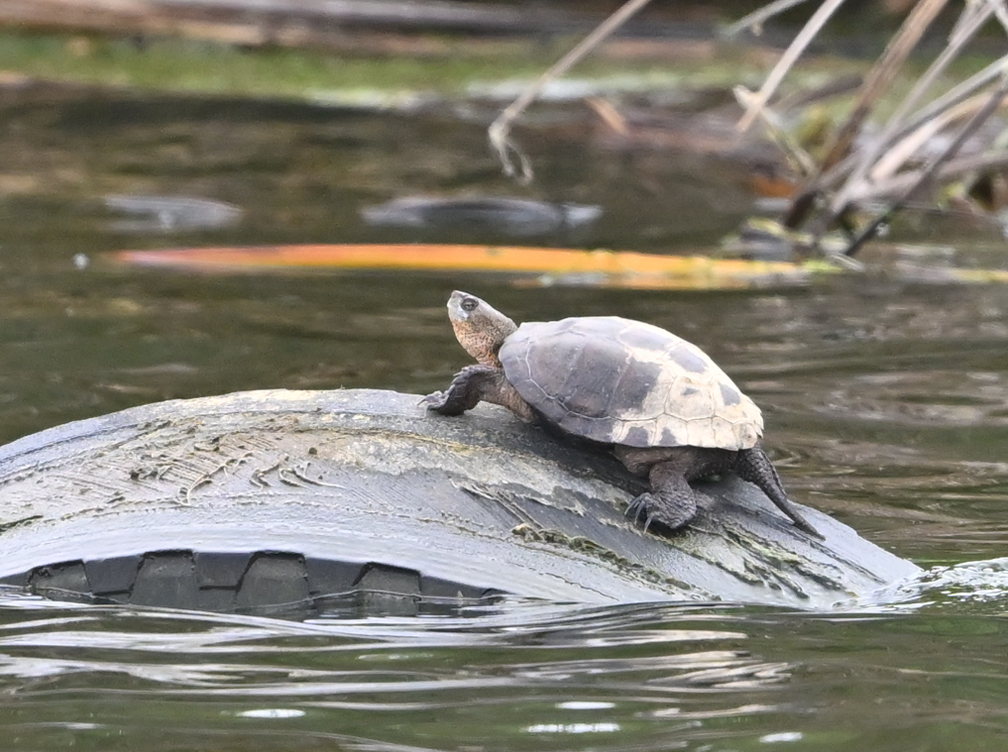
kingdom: Animalia
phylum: Chordata
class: Testudines
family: Emydidae
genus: Actinemys
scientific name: Actinemys marmorata
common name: Western pond turtle
